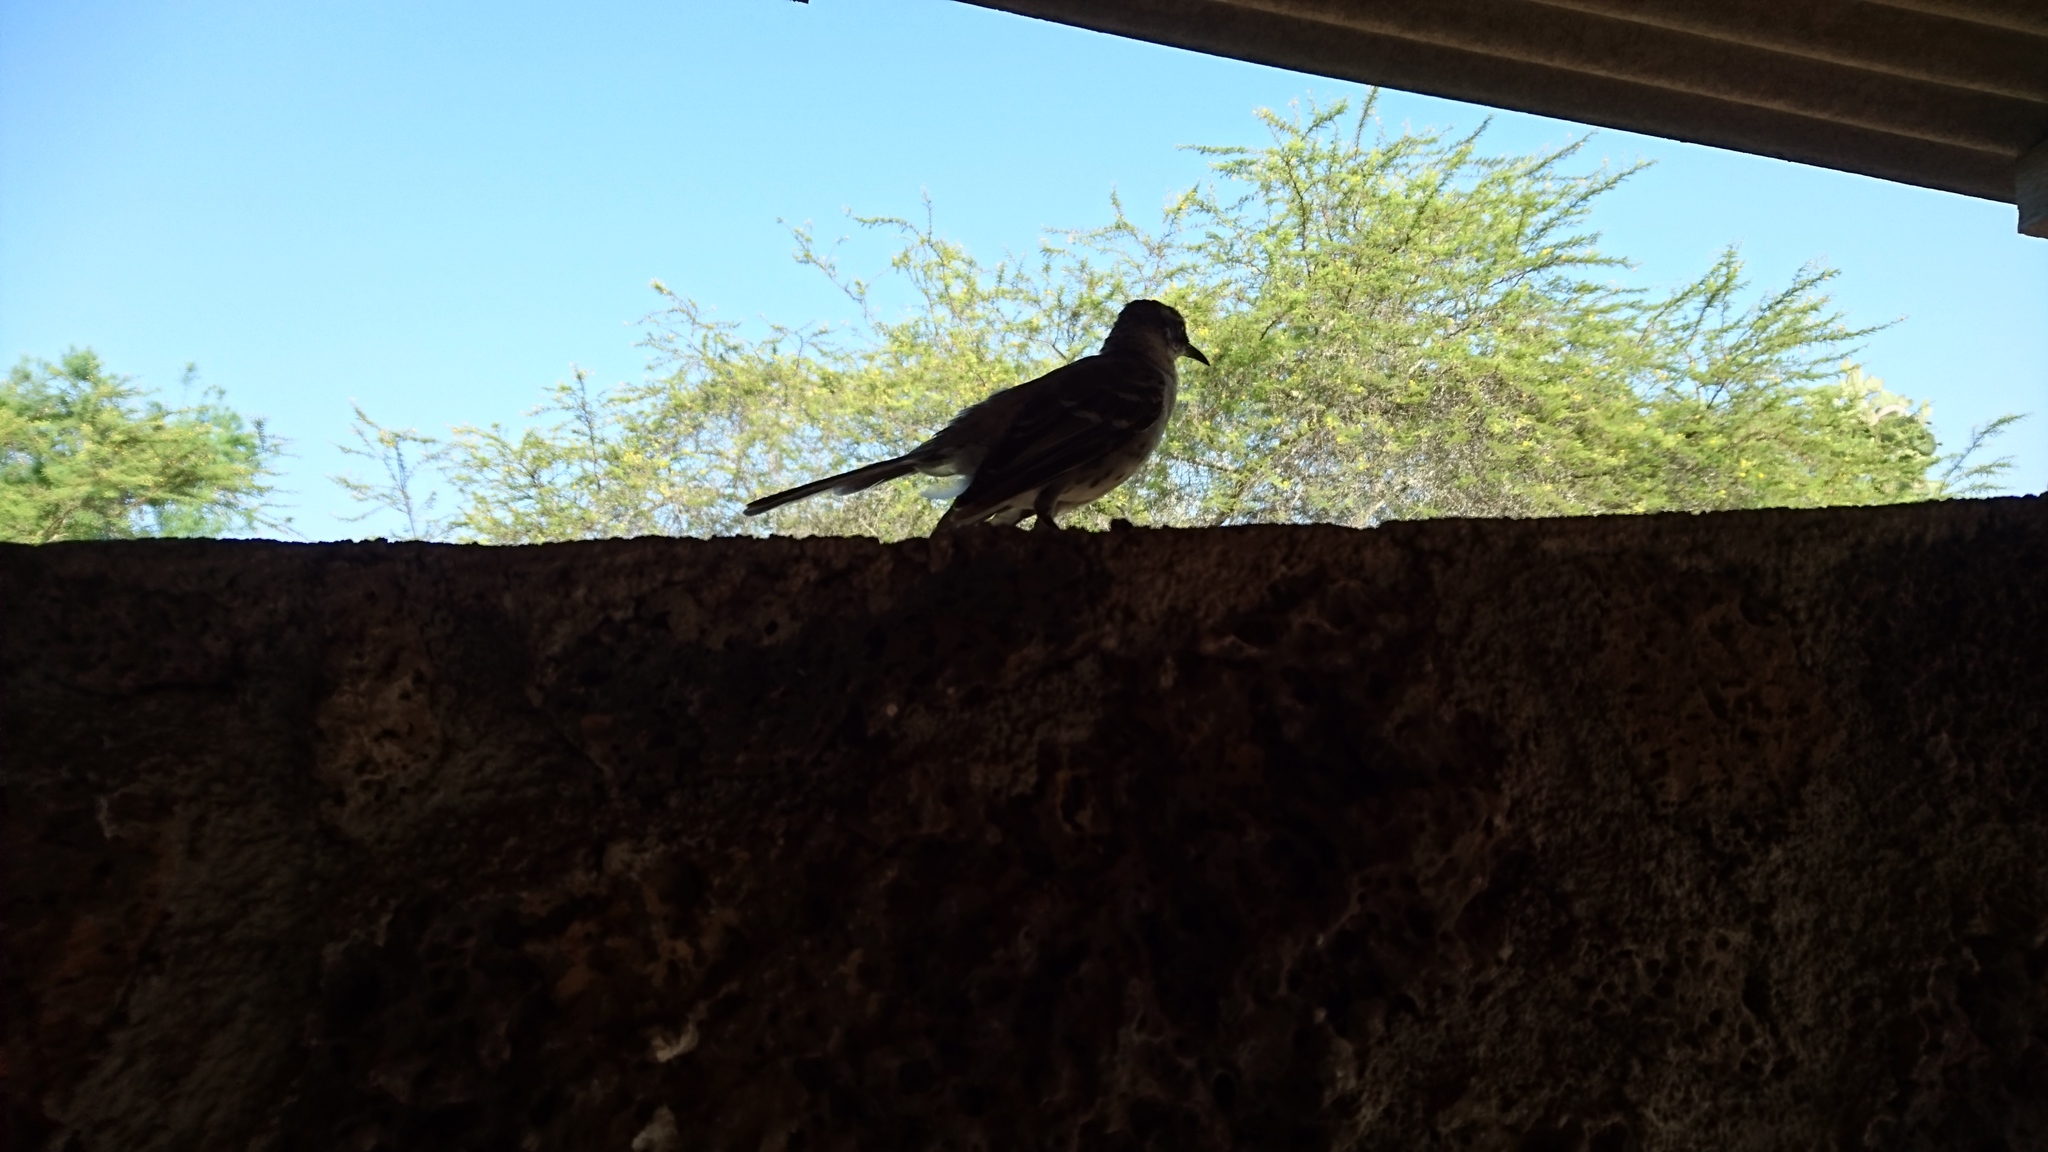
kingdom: Animalia
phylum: Chordata
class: Aves
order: Passeriformes
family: Mimidae
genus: Mimus
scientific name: Mimus parvulus
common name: Galapagos mockingbird
